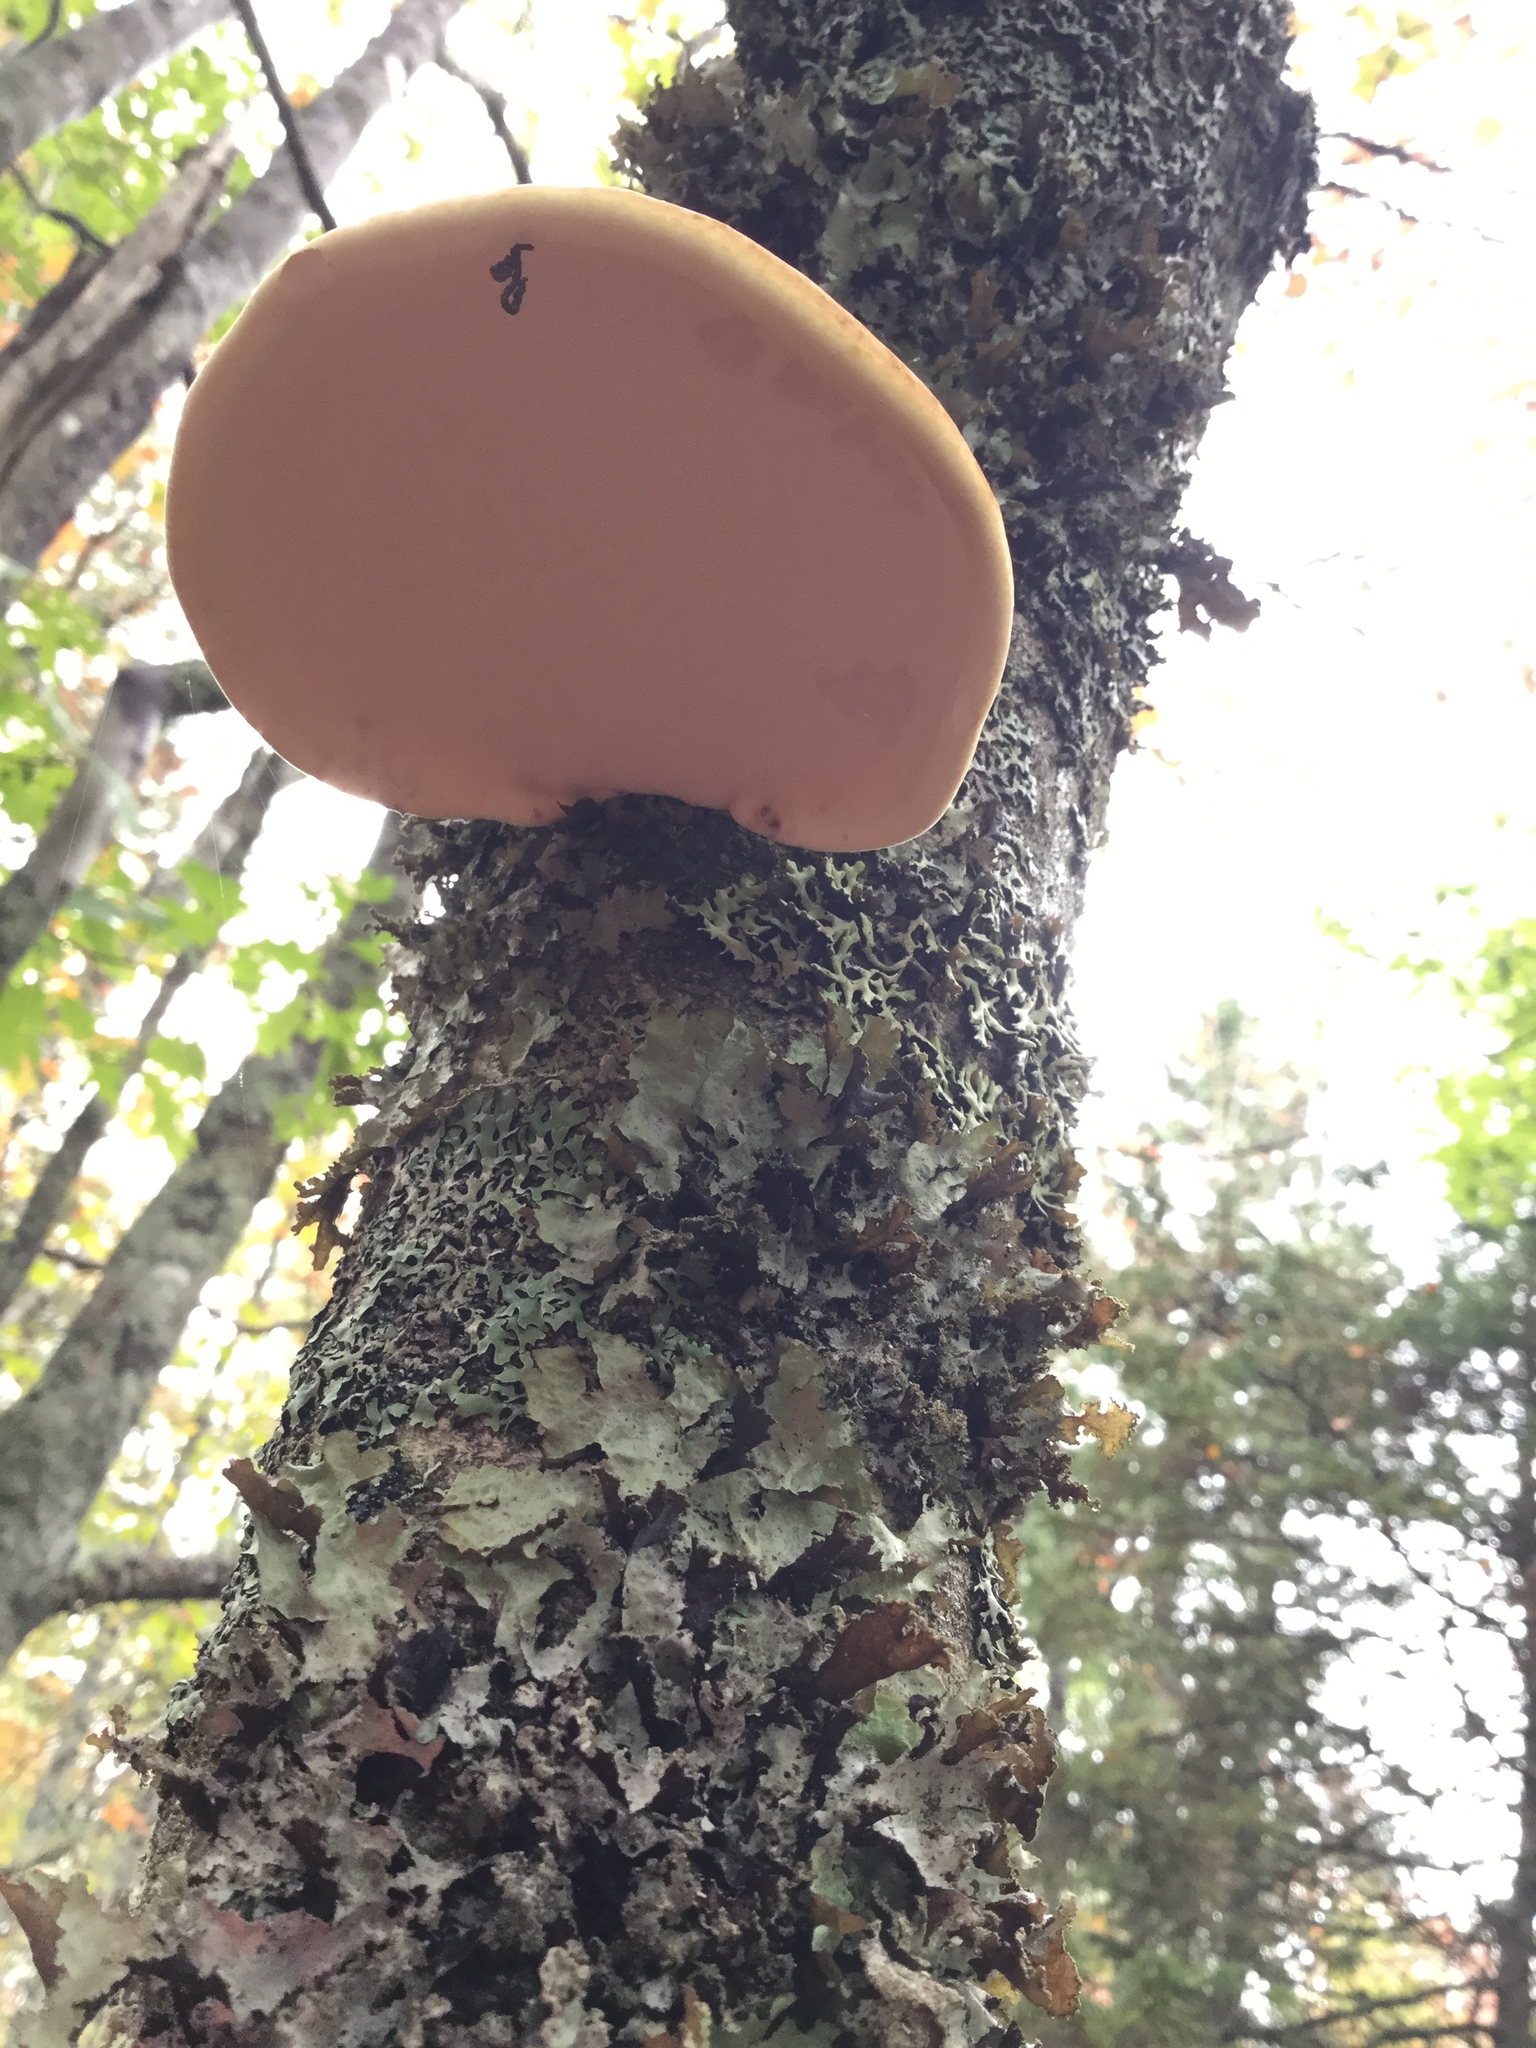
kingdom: Fungi
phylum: Basidiomycota
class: Agaricomycetes
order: Polyporales
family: Fomitopsidaceae
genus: Fomitopsis
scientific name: Fomitopsis betulina
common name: Birch polypore
